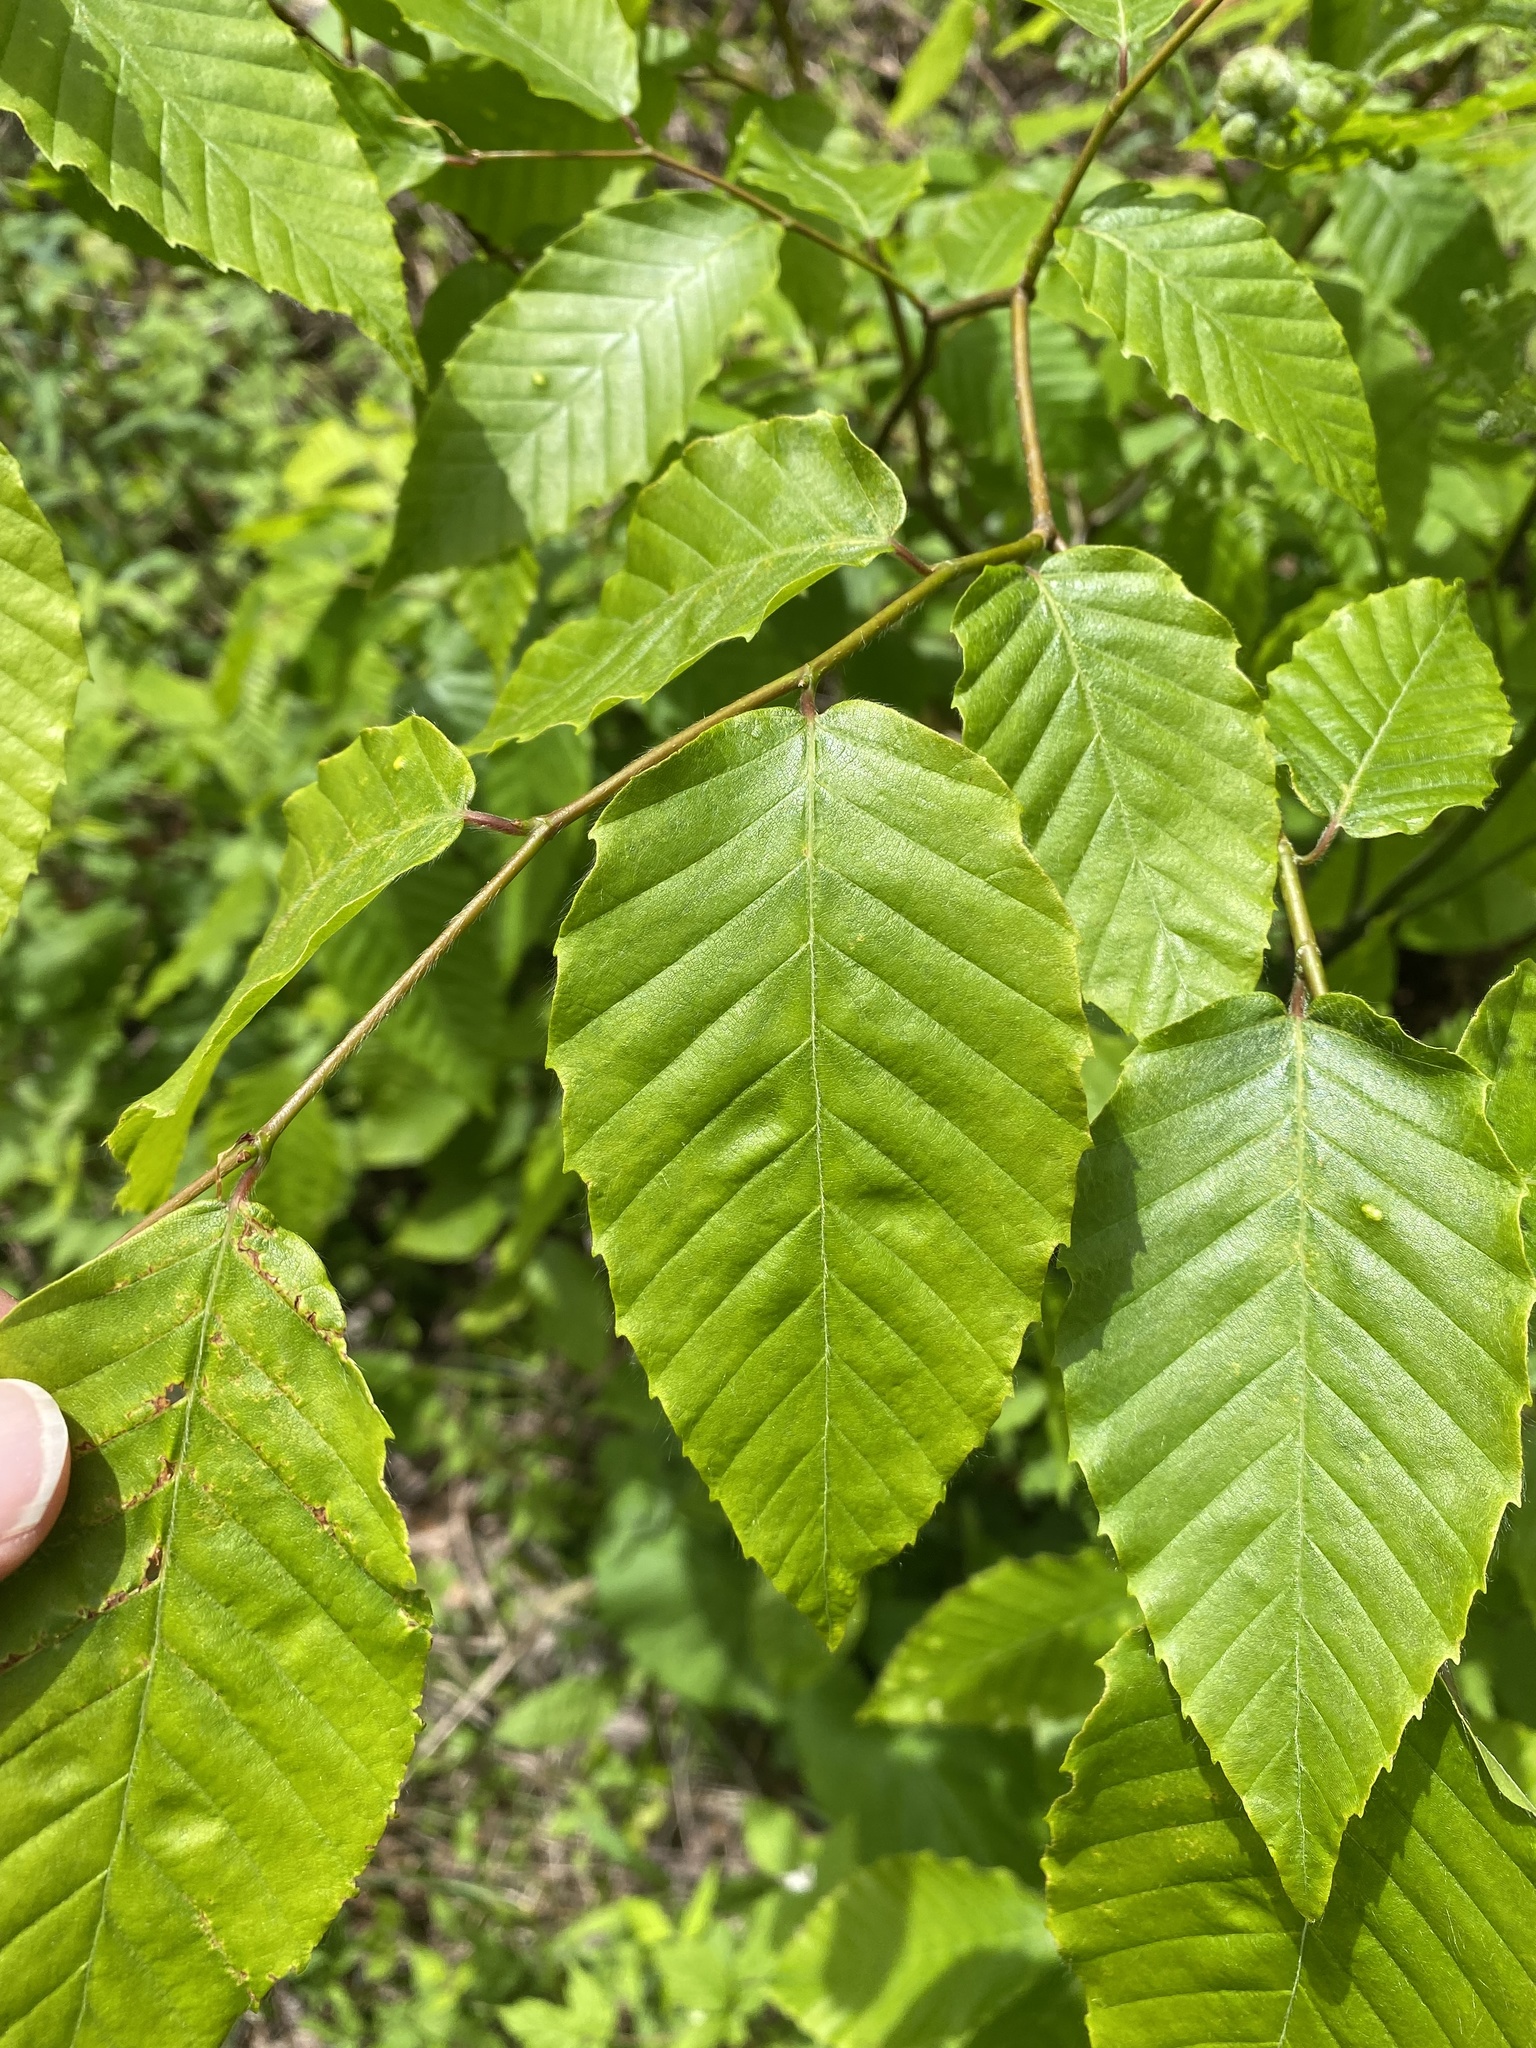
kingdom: Plantae
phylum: Tracheophyta
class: Magnoliopsida
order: Fagales
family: Fagaceae
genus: Fagus
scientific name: Fagus grandifolia
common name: American beech
